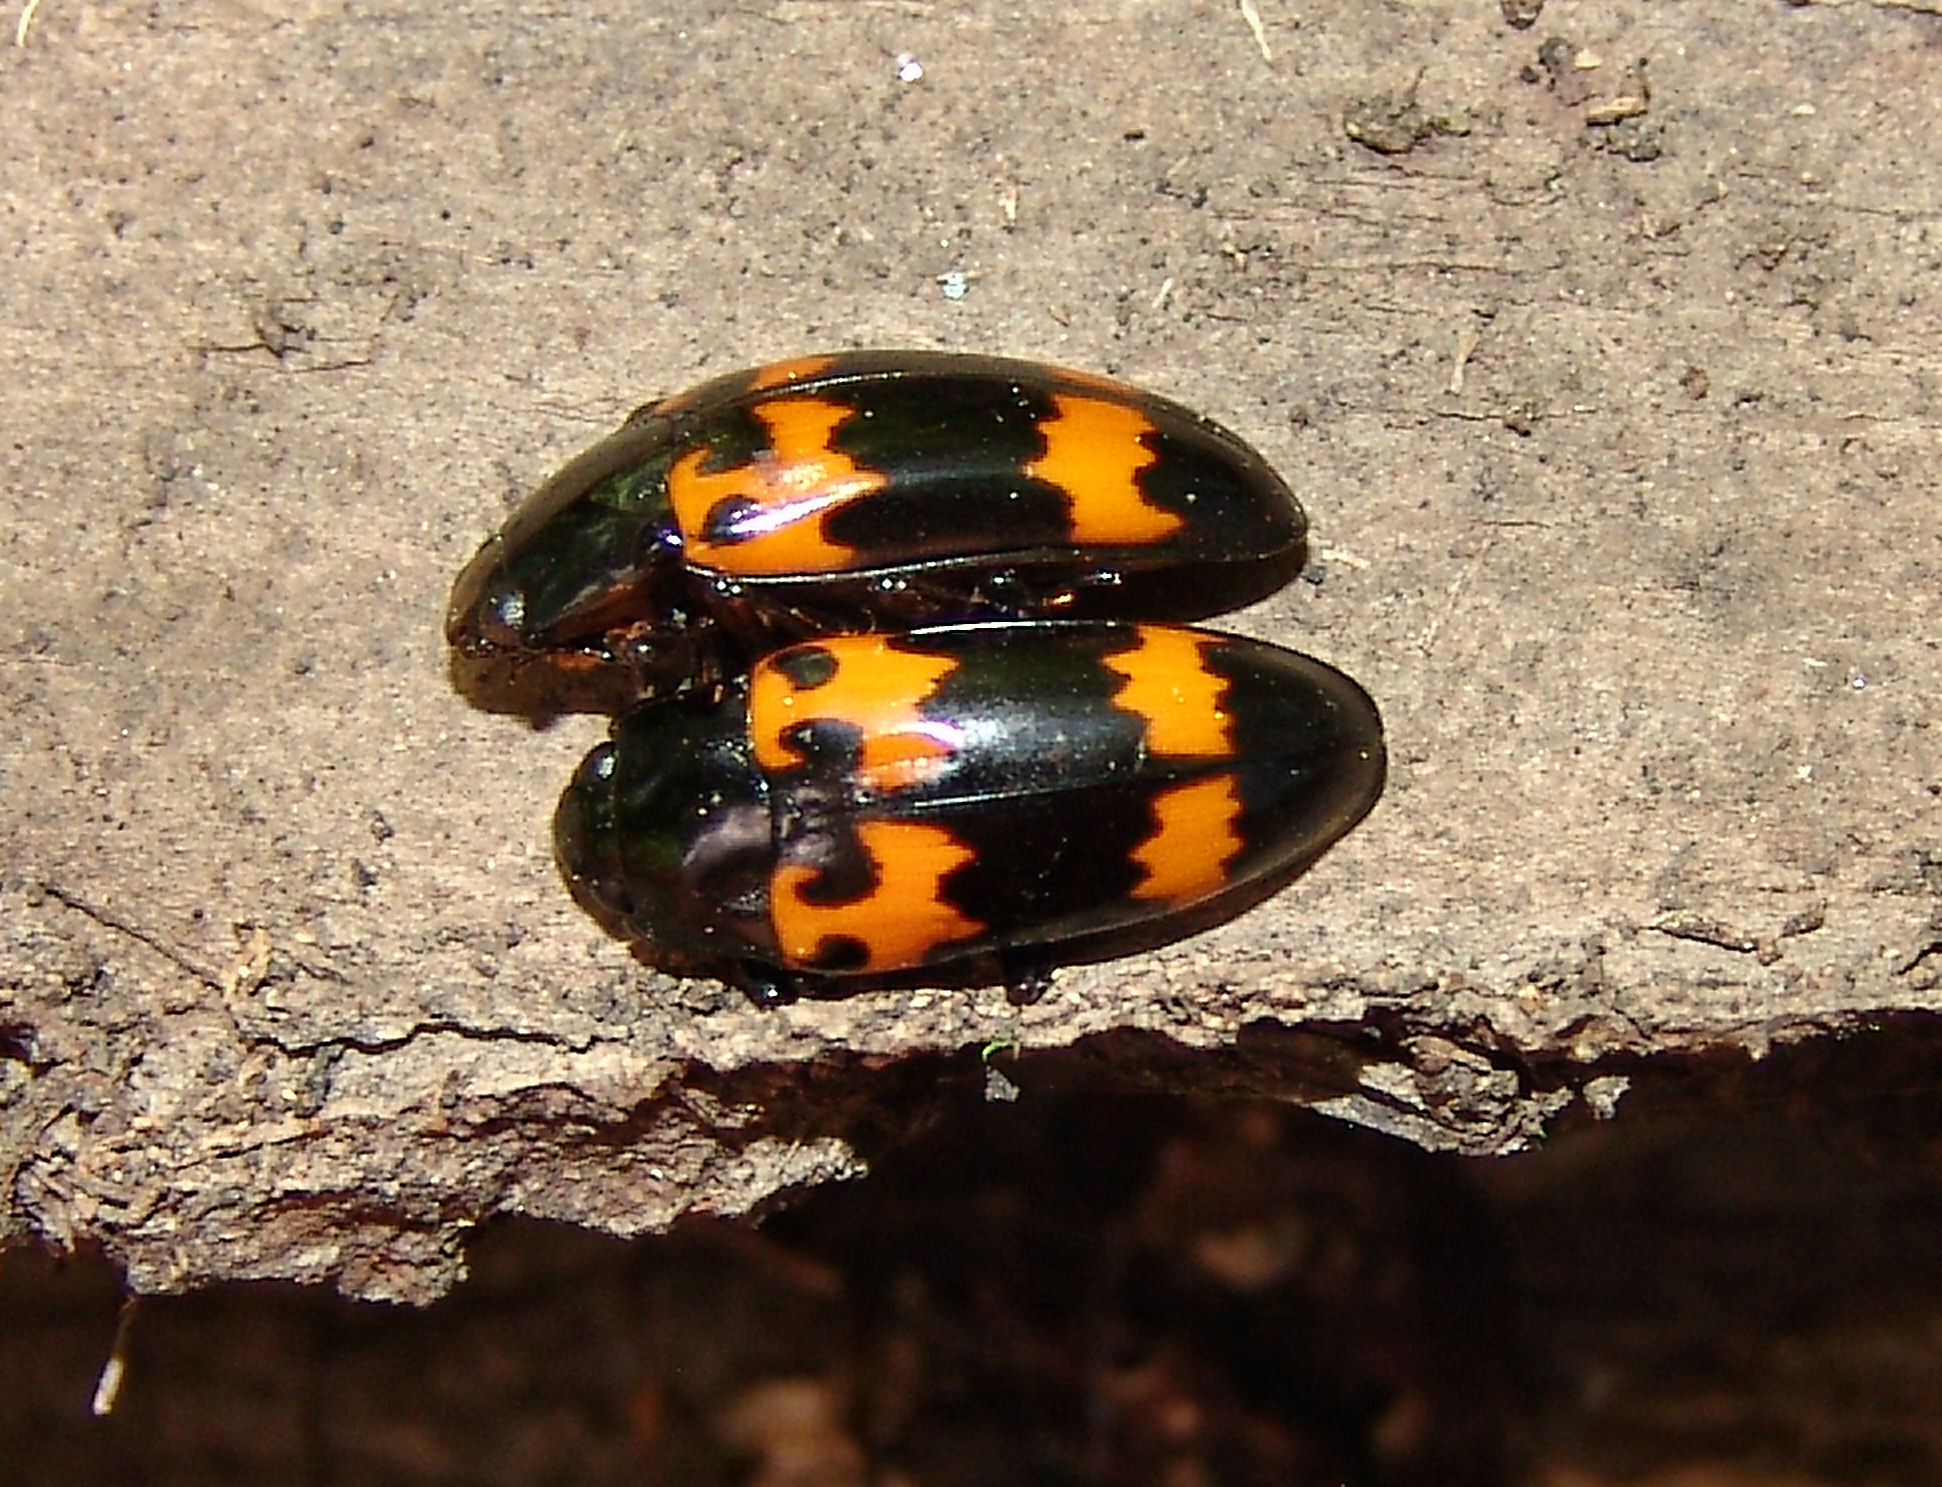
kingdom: Animalia
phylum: Arthropoda
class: Insecta
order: Coleoptera
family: Erotylidae
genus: Megalodacne
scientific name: Megalodacne heros
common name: Pleasing fungus beetle
